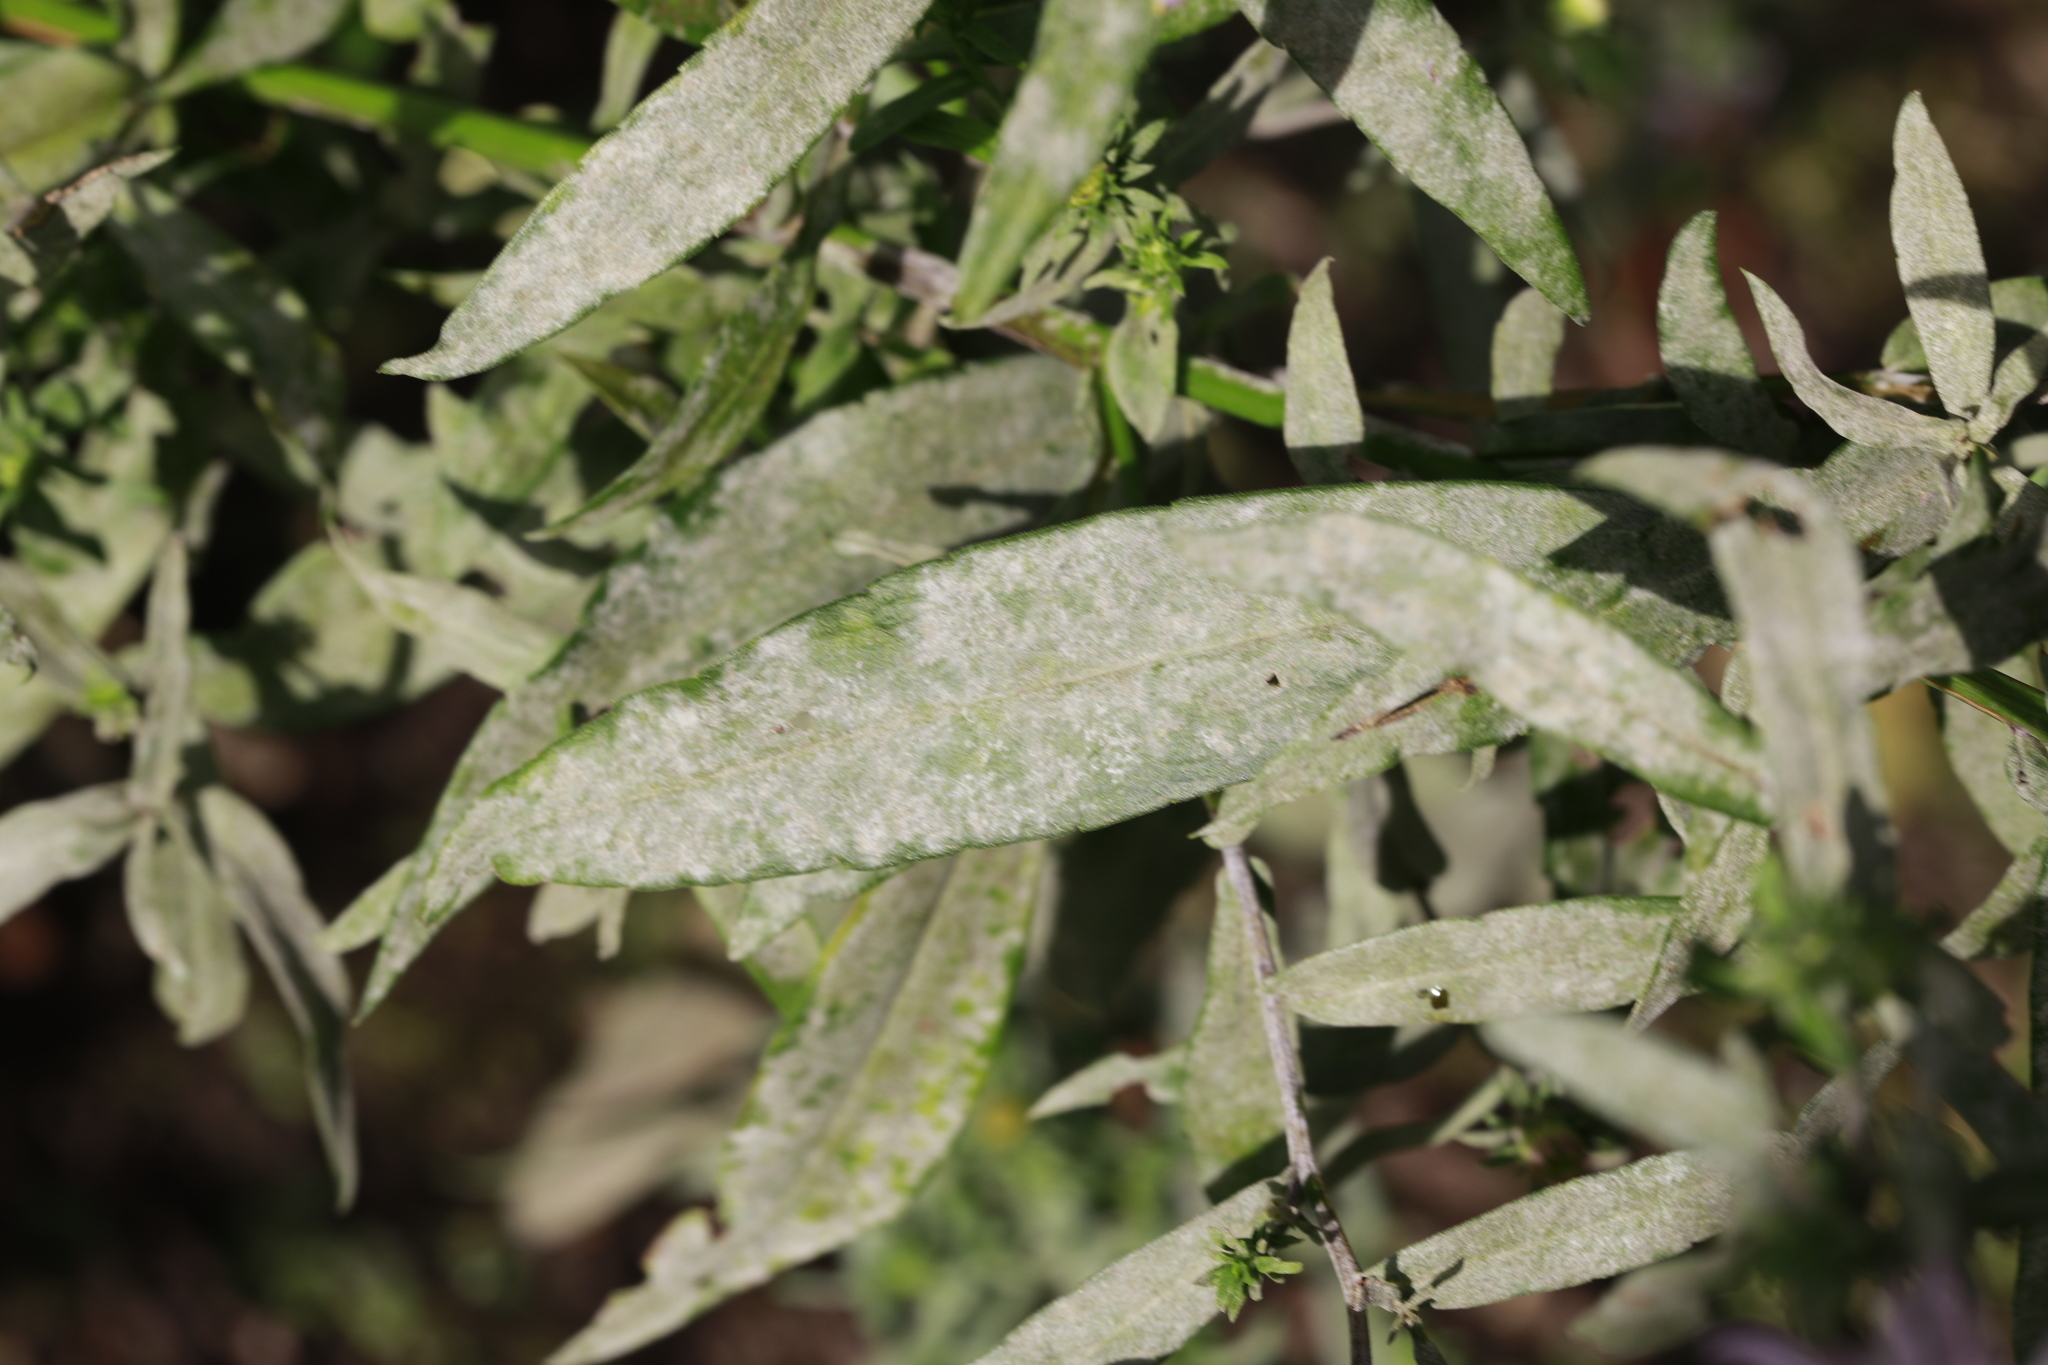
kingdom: Fungi
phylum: Ascomycota
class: Leotiomycetes
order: Helotiales
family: Erysiphaceae
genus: Golovinomyces
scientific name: Golovinomyces asterum
